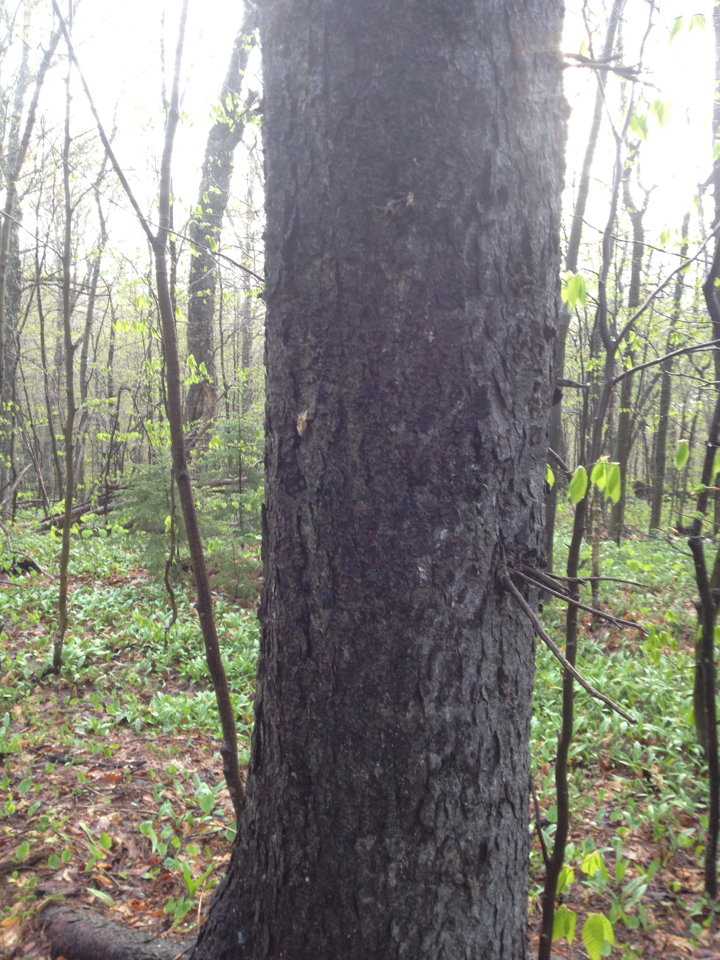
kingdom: Plantae
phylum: Tracheophyta
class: Pinopsida
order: Pinales
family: Pinaceae
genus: Picea
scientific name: Picea rubens
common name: Red spruce
